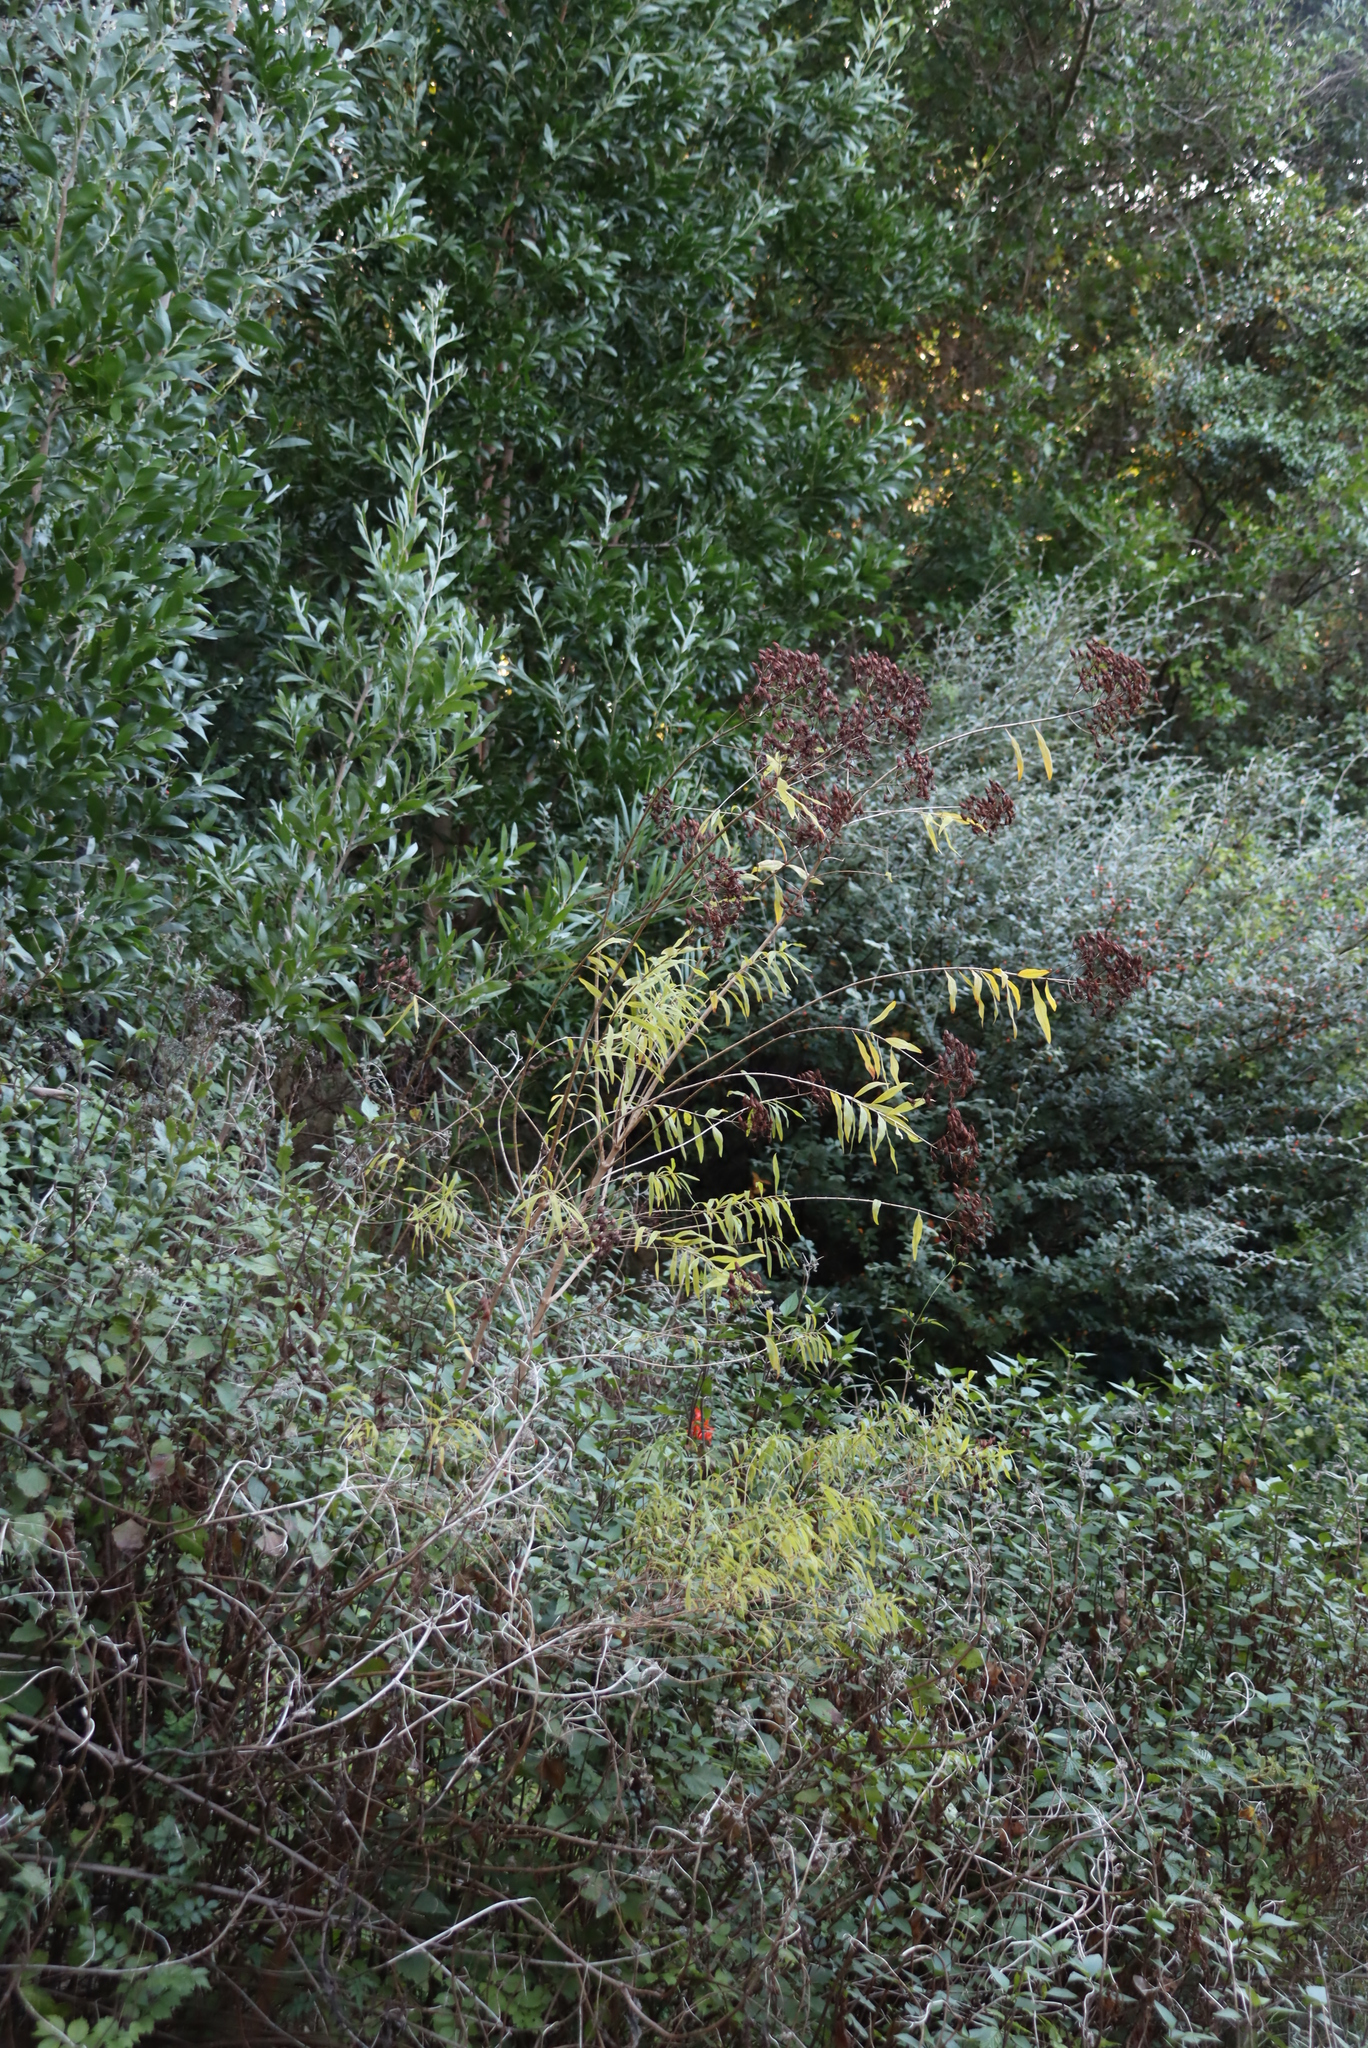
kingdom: Plantae
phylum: Tracheophyta
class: Magnoliopsida
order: Malpighiales
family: Hypericaceae
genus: Hypericum
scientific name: Hypericum canariense
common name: Canary island st. johnswort
